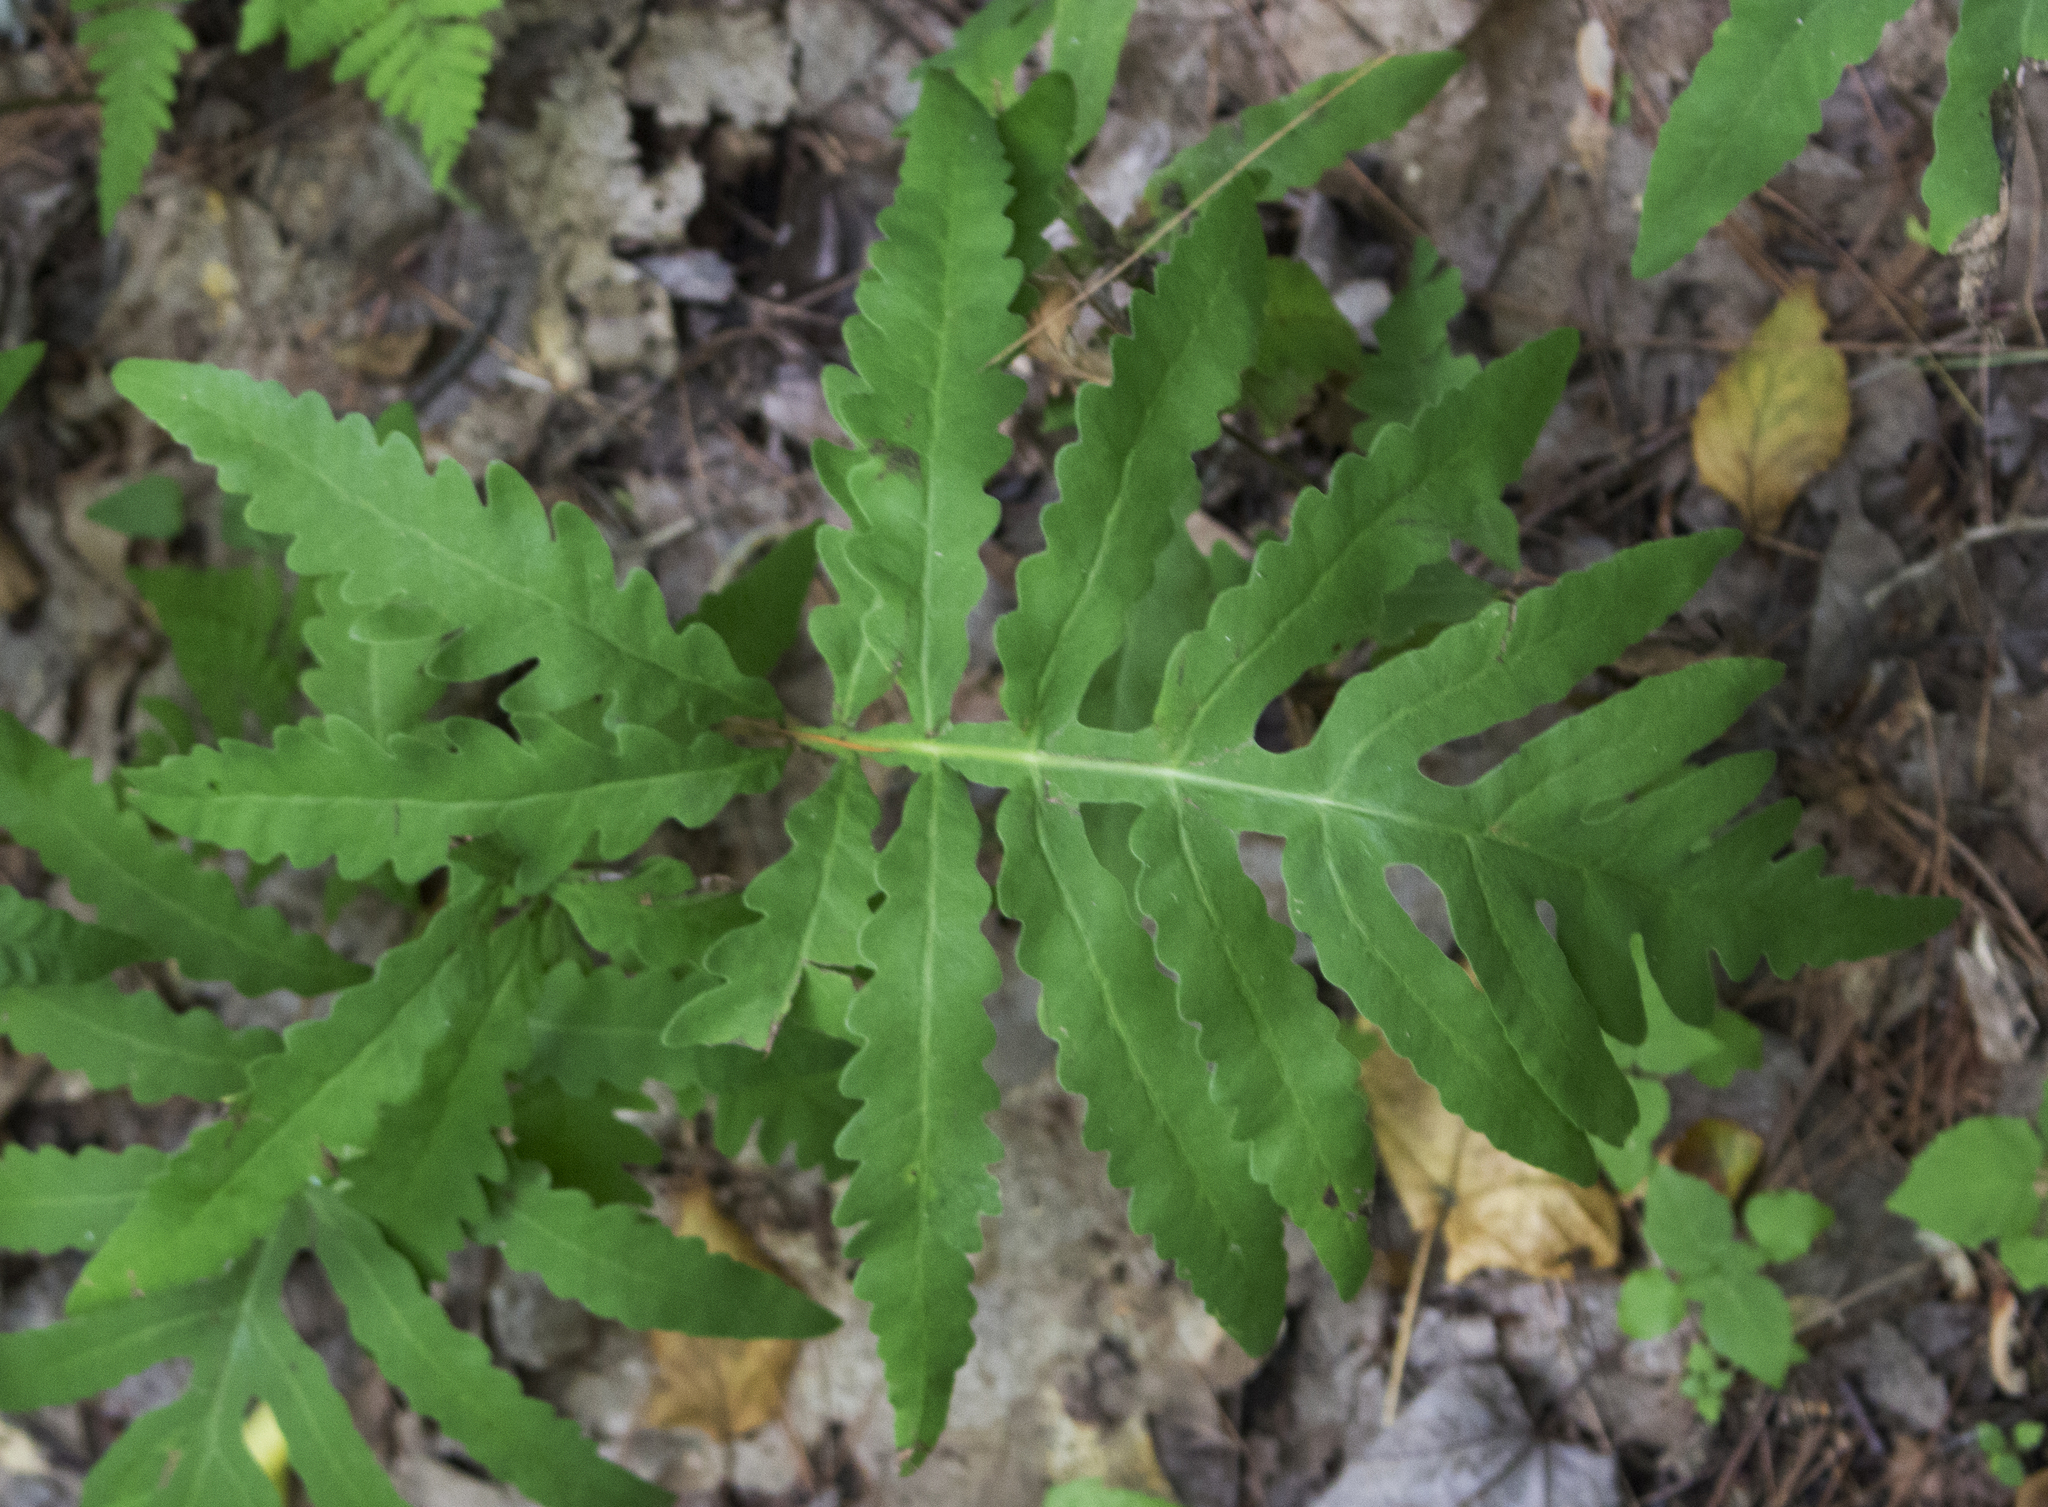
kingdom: Plantae
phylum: Tracheophyta
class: Polypodiopsida
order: Polypodiales
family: Onocleaceae
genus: Onoclea
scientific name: Onoclea sensibilis
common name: Sensitive fern
